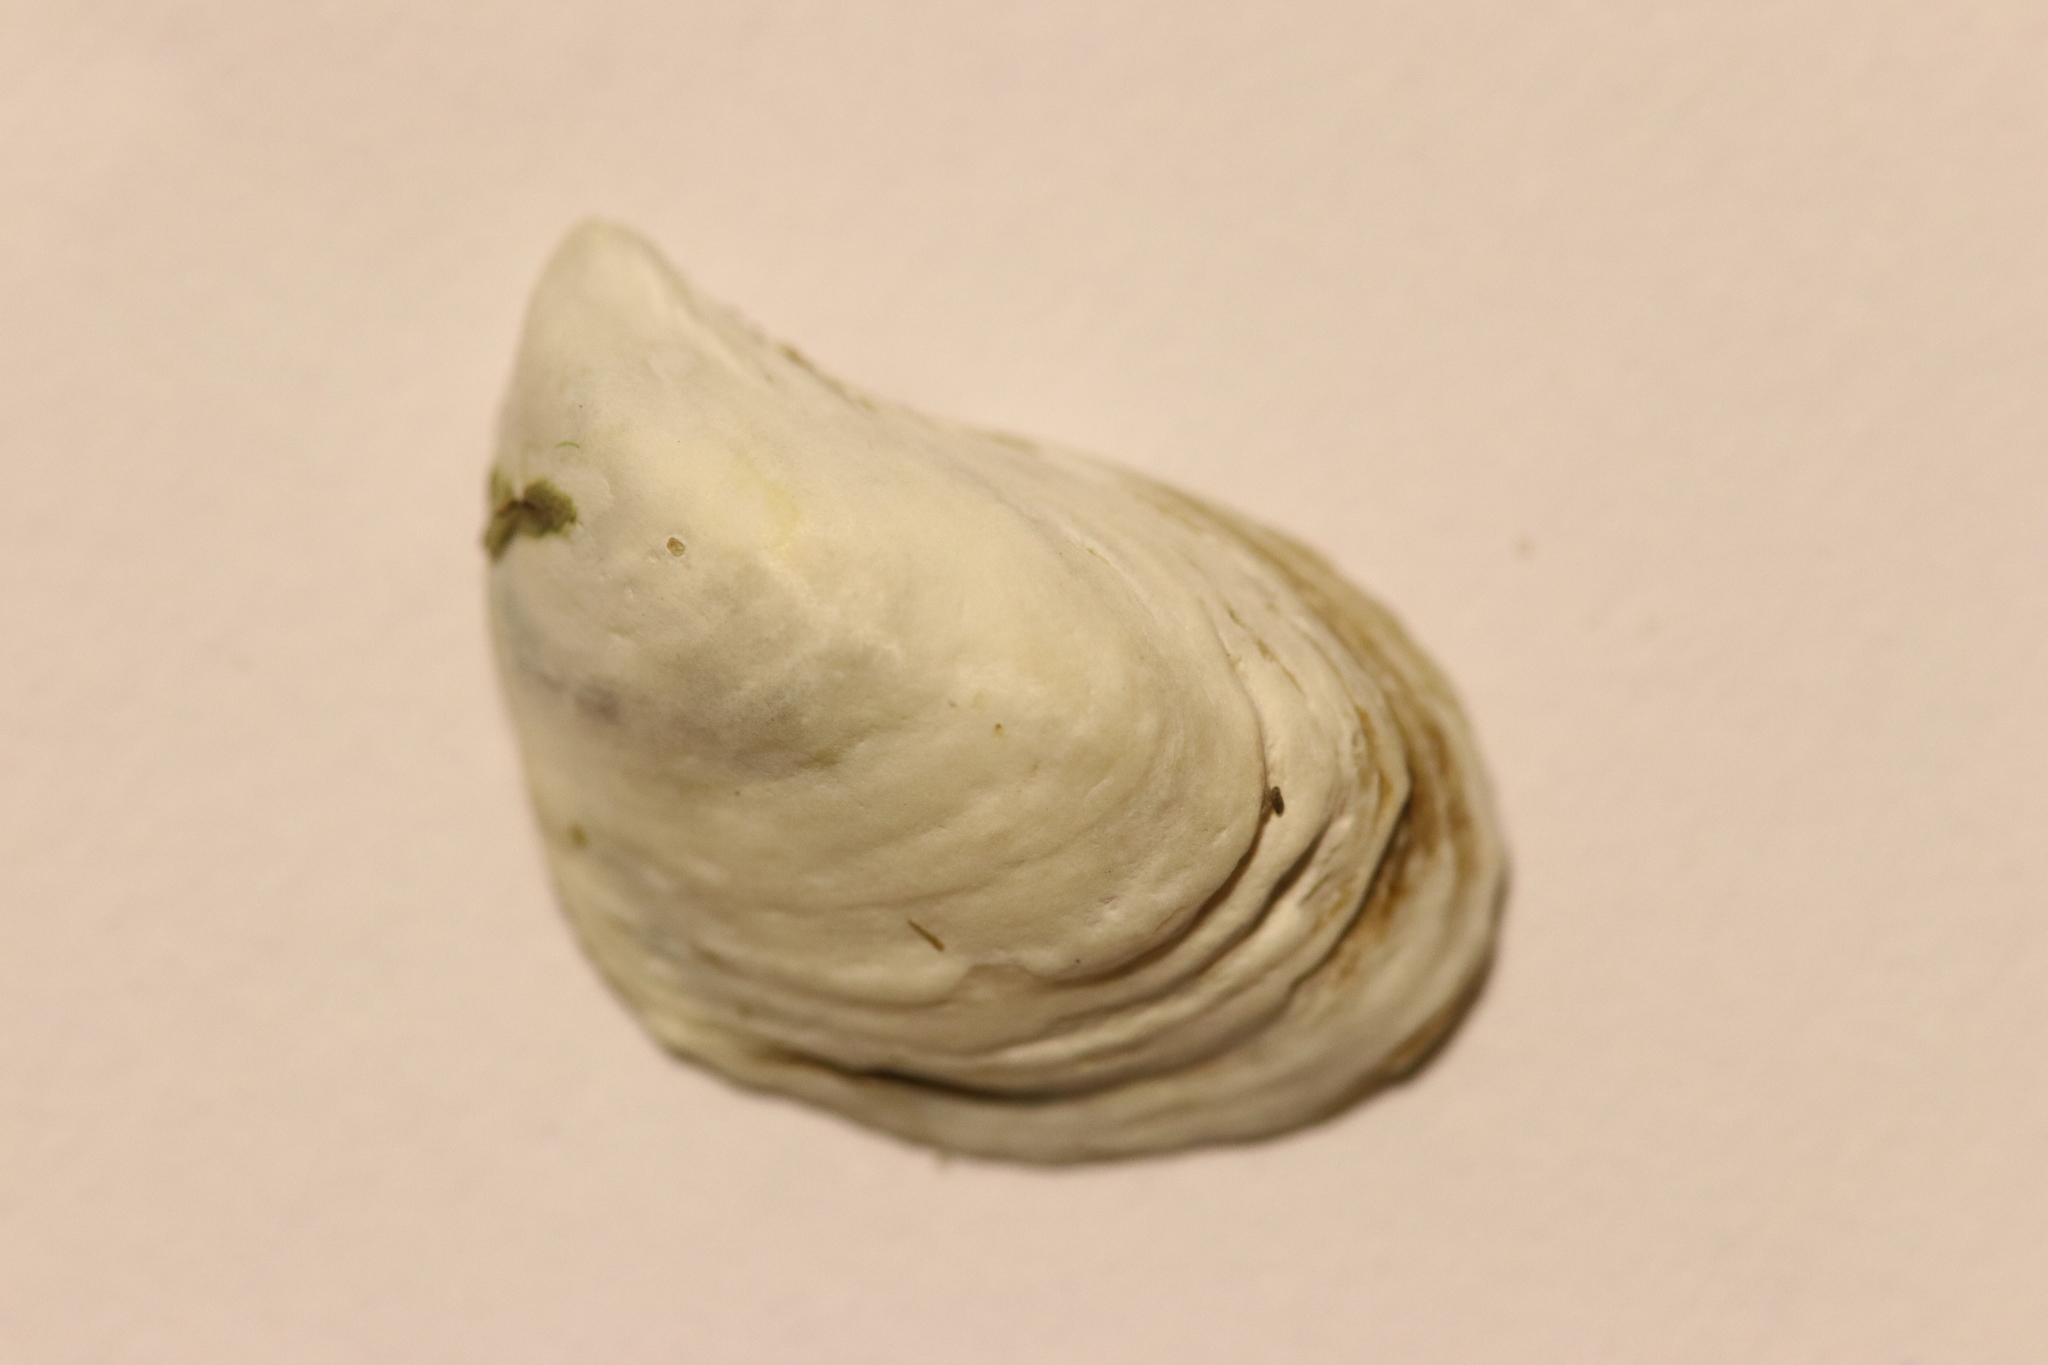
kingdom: Animalia
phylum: Mollusca
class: Bivalvia
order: Myida
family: Dreissenidae
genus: Dreissena
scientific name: Dreissena bugensis
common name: Quagga mussel
